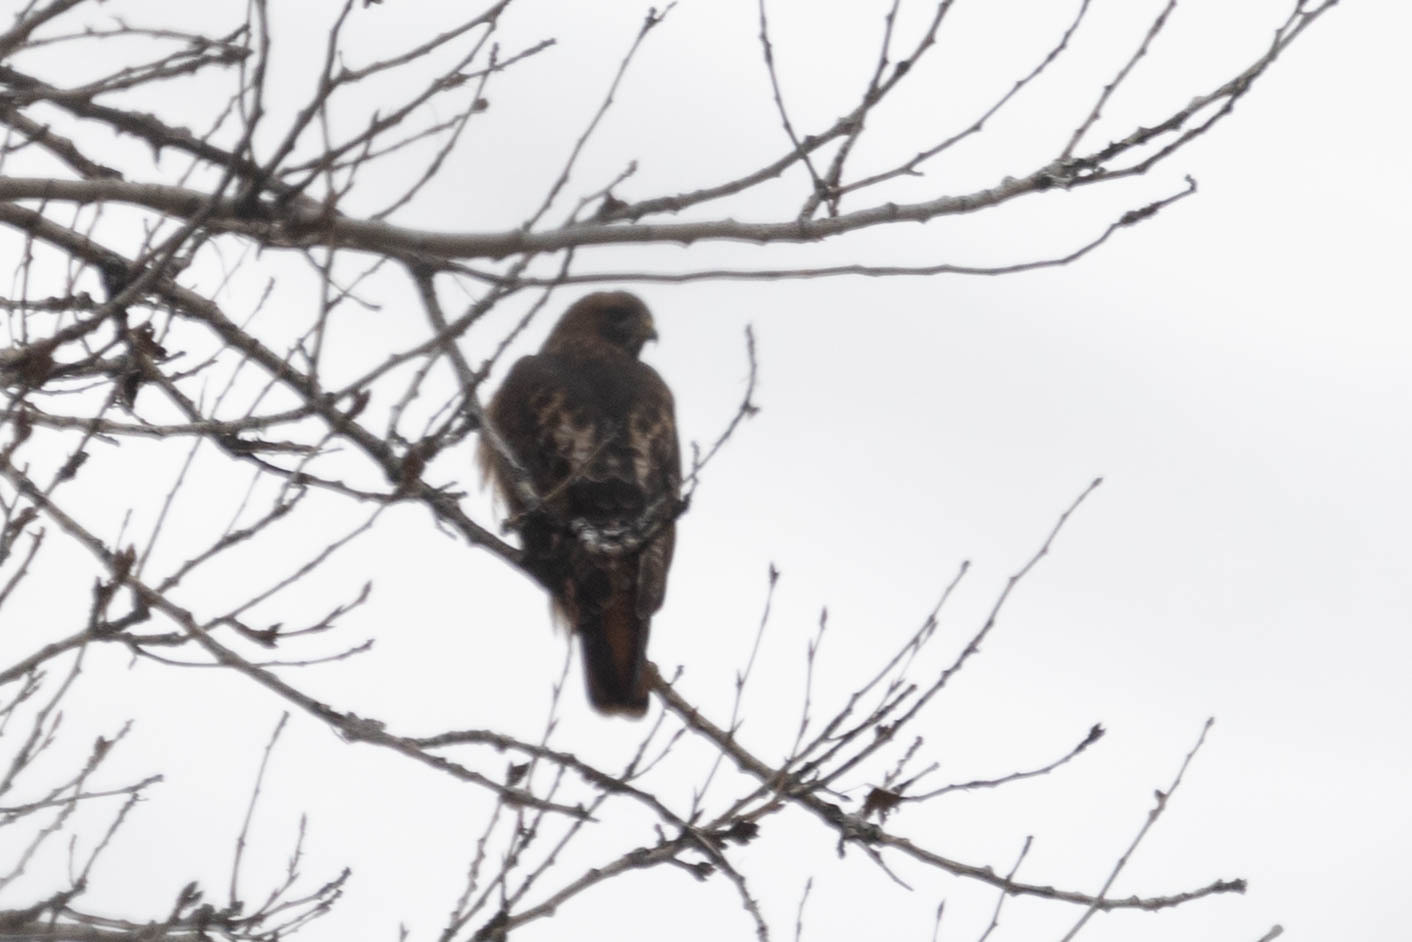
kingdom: Animalia
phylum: Chordata
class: Aves
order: Accipitriformes
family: Accipitridae
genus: Buteo
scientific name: Buteo jamaicensis
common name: Red-tailed hawk
